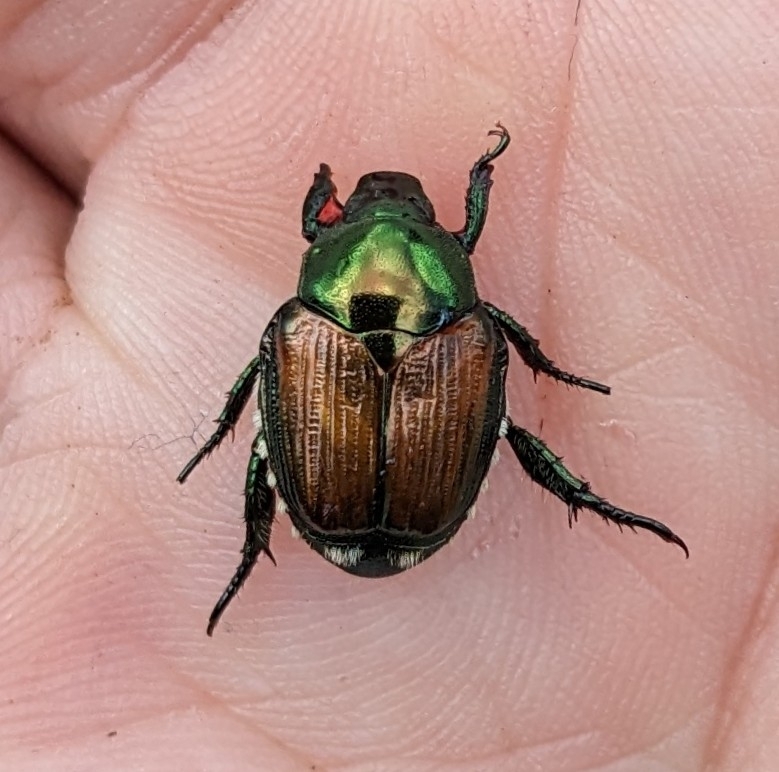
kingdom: Animalia
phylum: Arthropoda
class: Insecta
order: Coleoptera
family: Scarabaeidae
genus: Popillia
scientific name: Popillia japonica
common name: Japanese beetle
